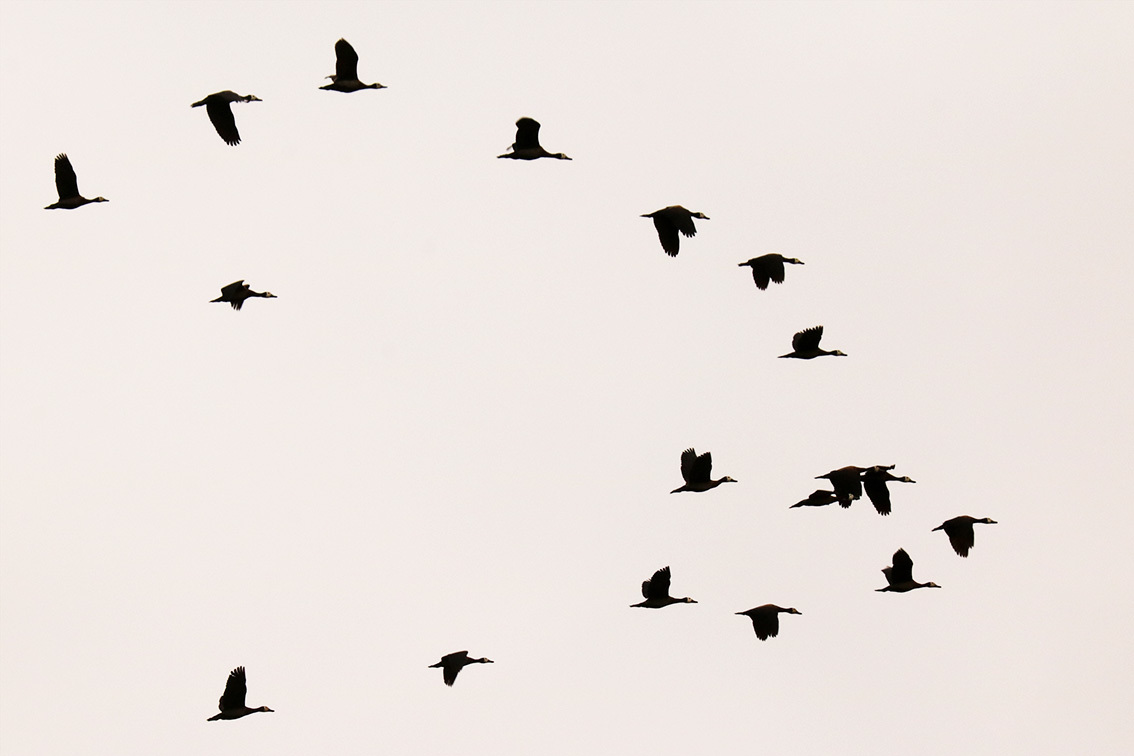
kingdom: Animalia
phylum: Chordata
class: Aves
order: Anseriformes
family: Anatidae
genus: Dendrocygna
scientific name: Dendrocygna viduata
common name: White-faced whistling duck
